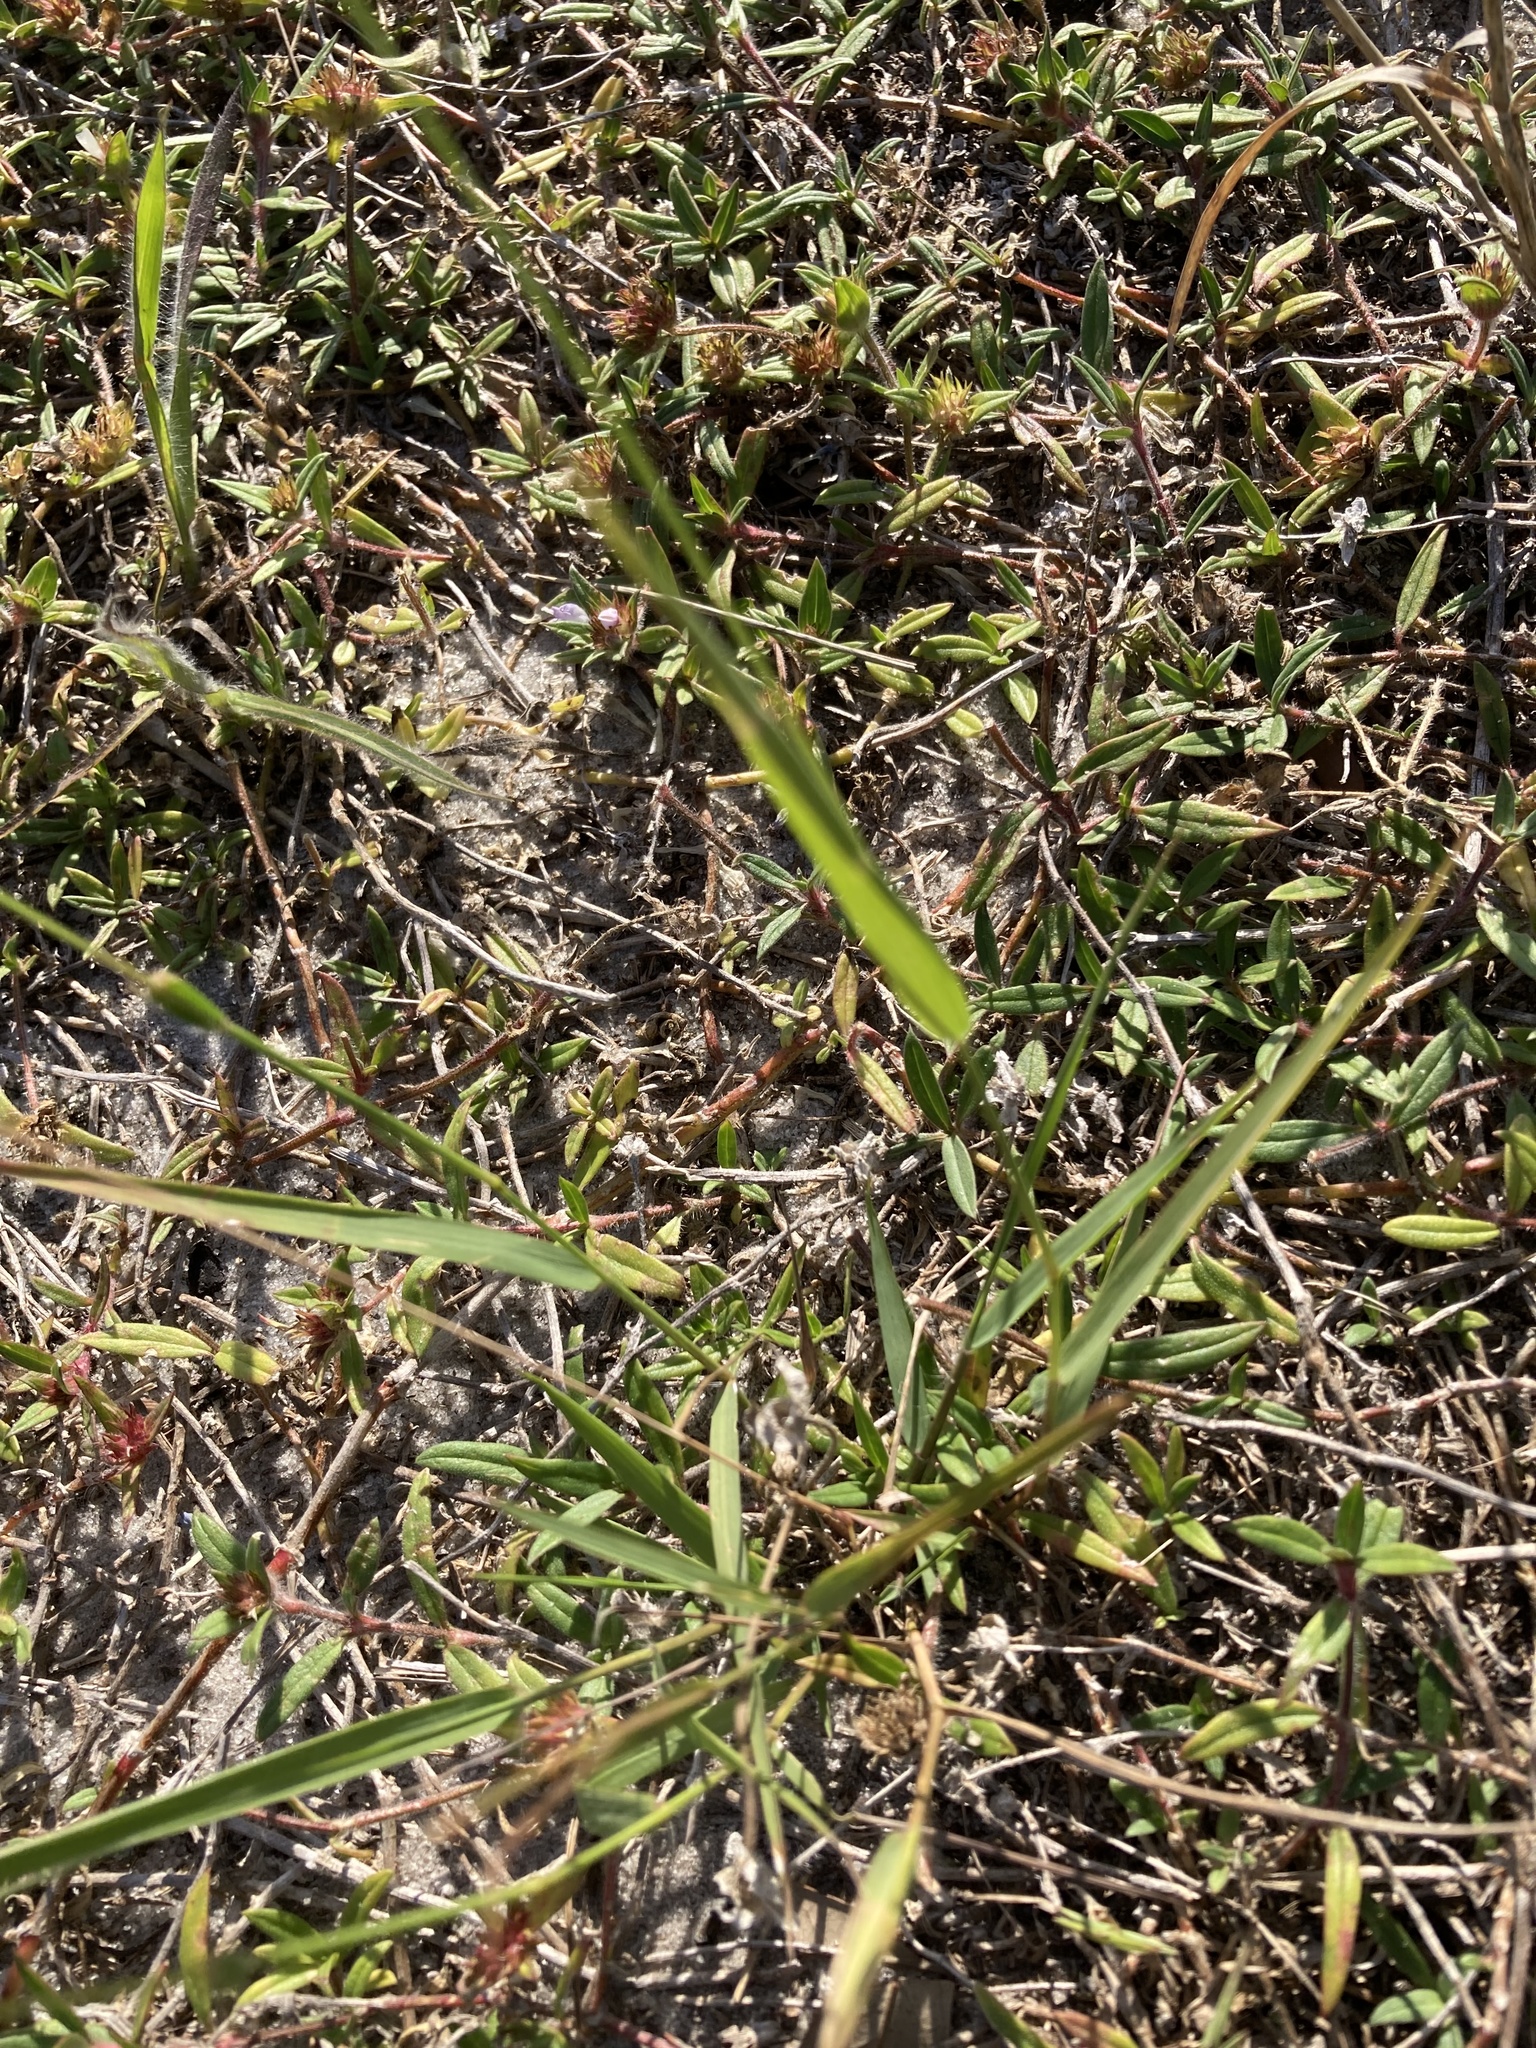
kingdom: Plantae
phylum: Tracheophyta
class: Liliopsida
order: Poales
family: Poaceae
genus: Eragrostis
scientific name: Eragrostis ciliaris
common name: Gophertail lovegrass
